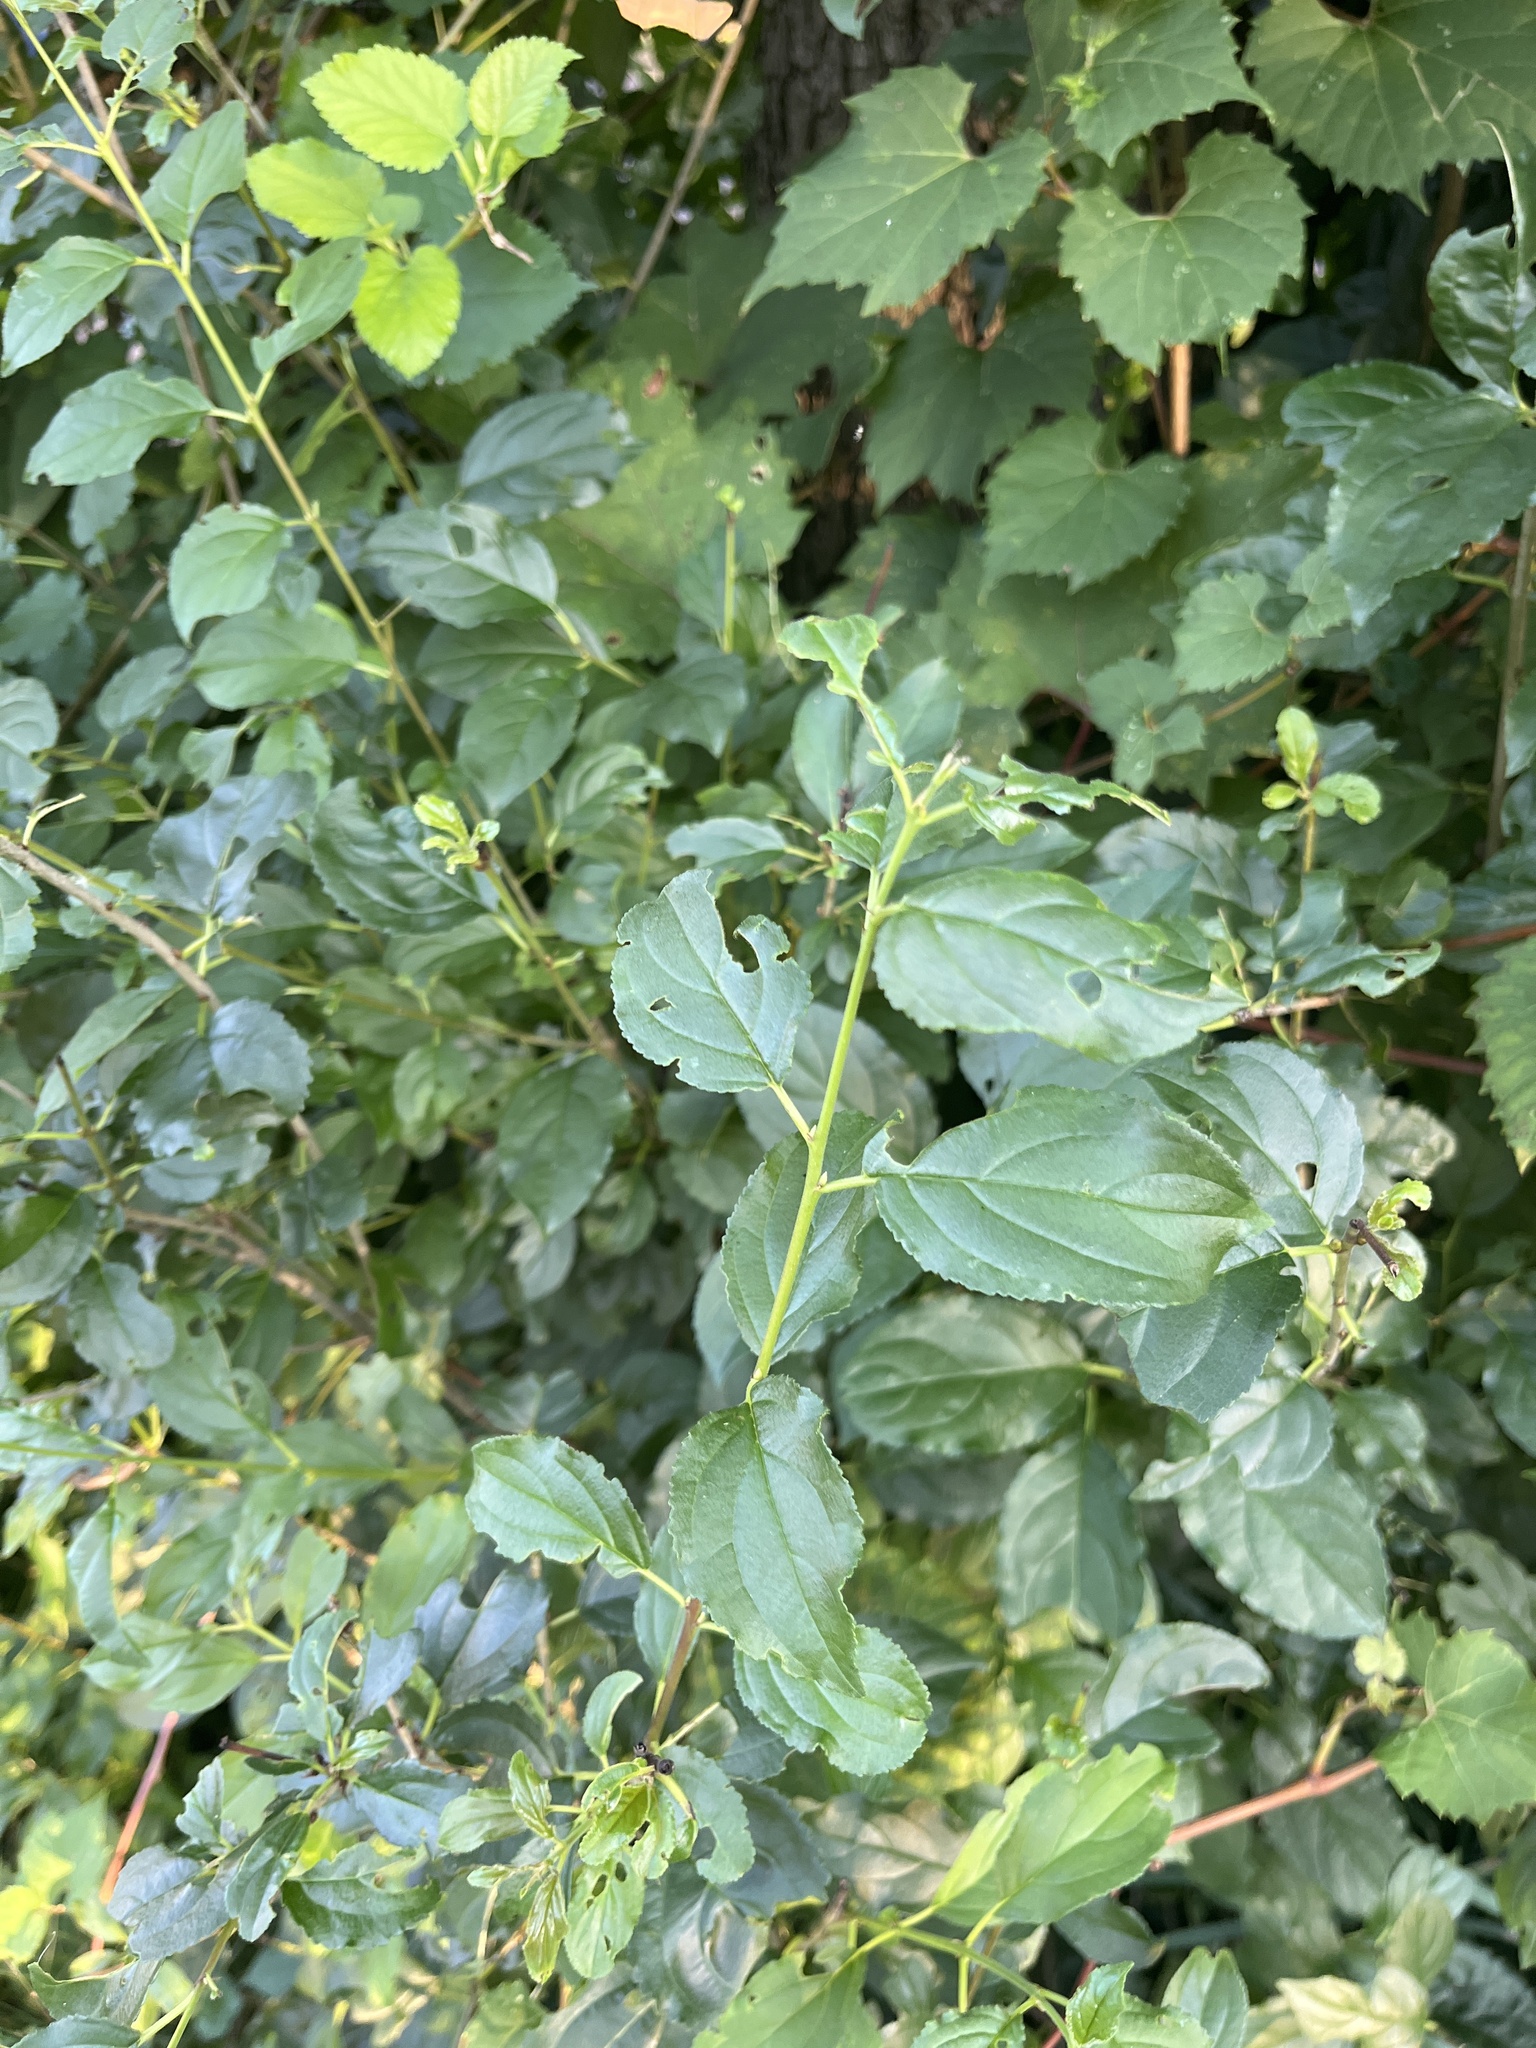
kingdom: Plantae
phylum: Tracheophyta
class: Magnoliopsida
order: Rosales
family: Rhamnaceae
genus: Rhamnus
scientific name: Rhamnus cathartica
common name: Common buckthorn
